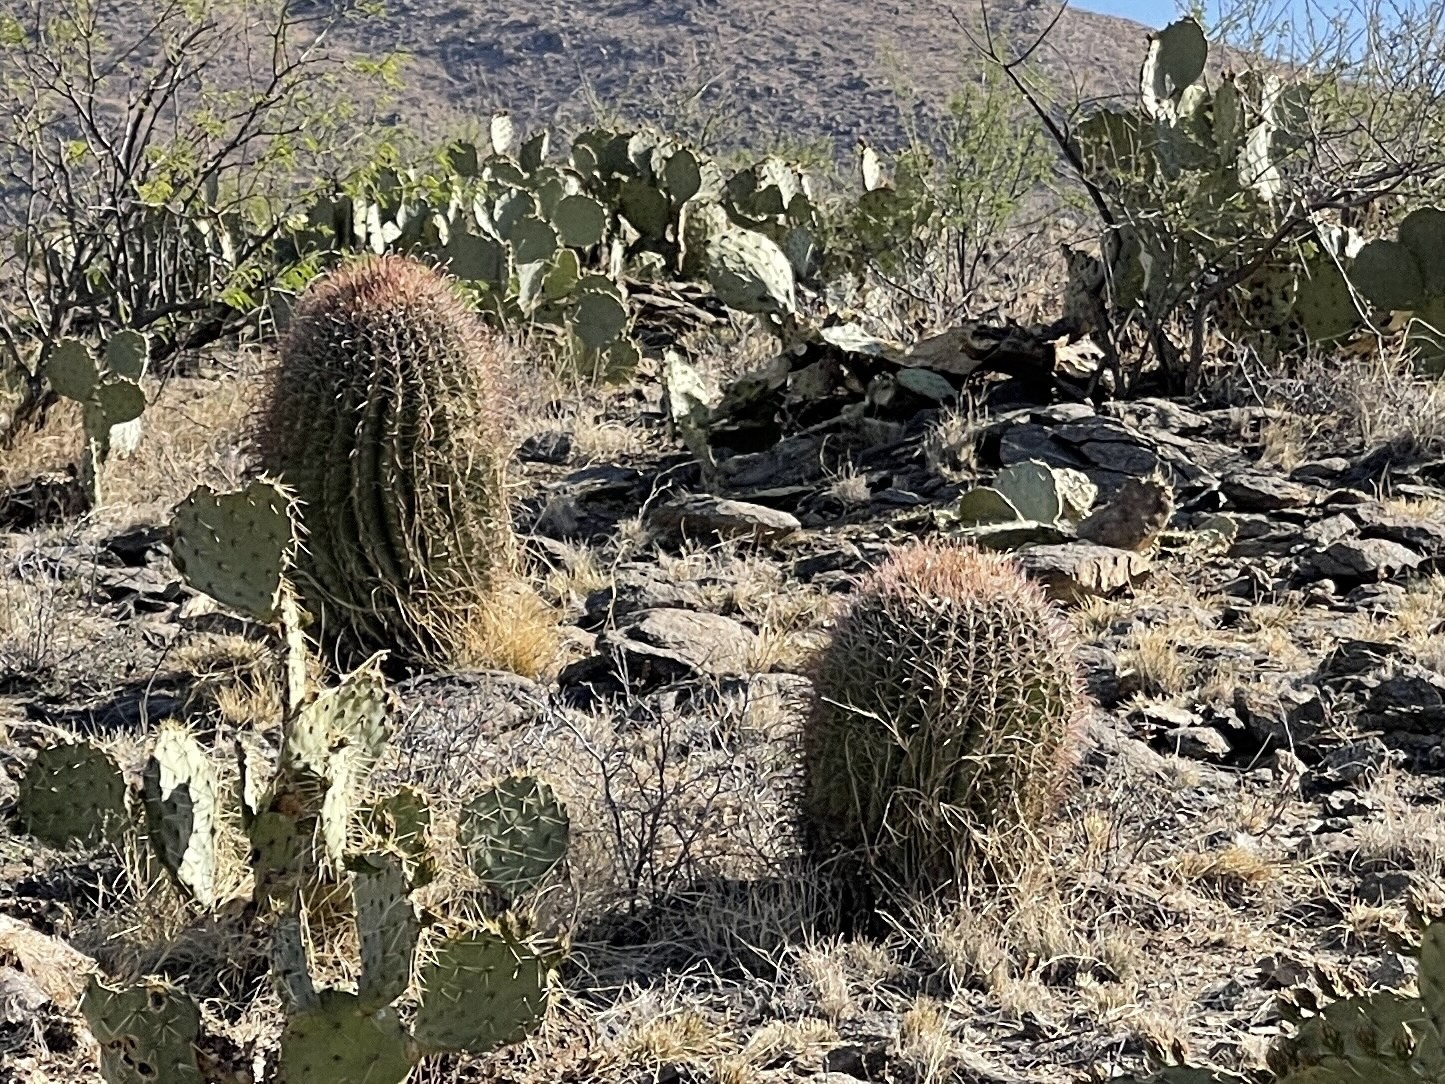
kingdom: Plantae
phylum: Tracheophyta
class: Magnoliopsida
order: Caryophyllales
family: Cactaceae
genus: Ferocactus
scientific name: Ferocactus wislizeni
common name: Candy barrel cactus
